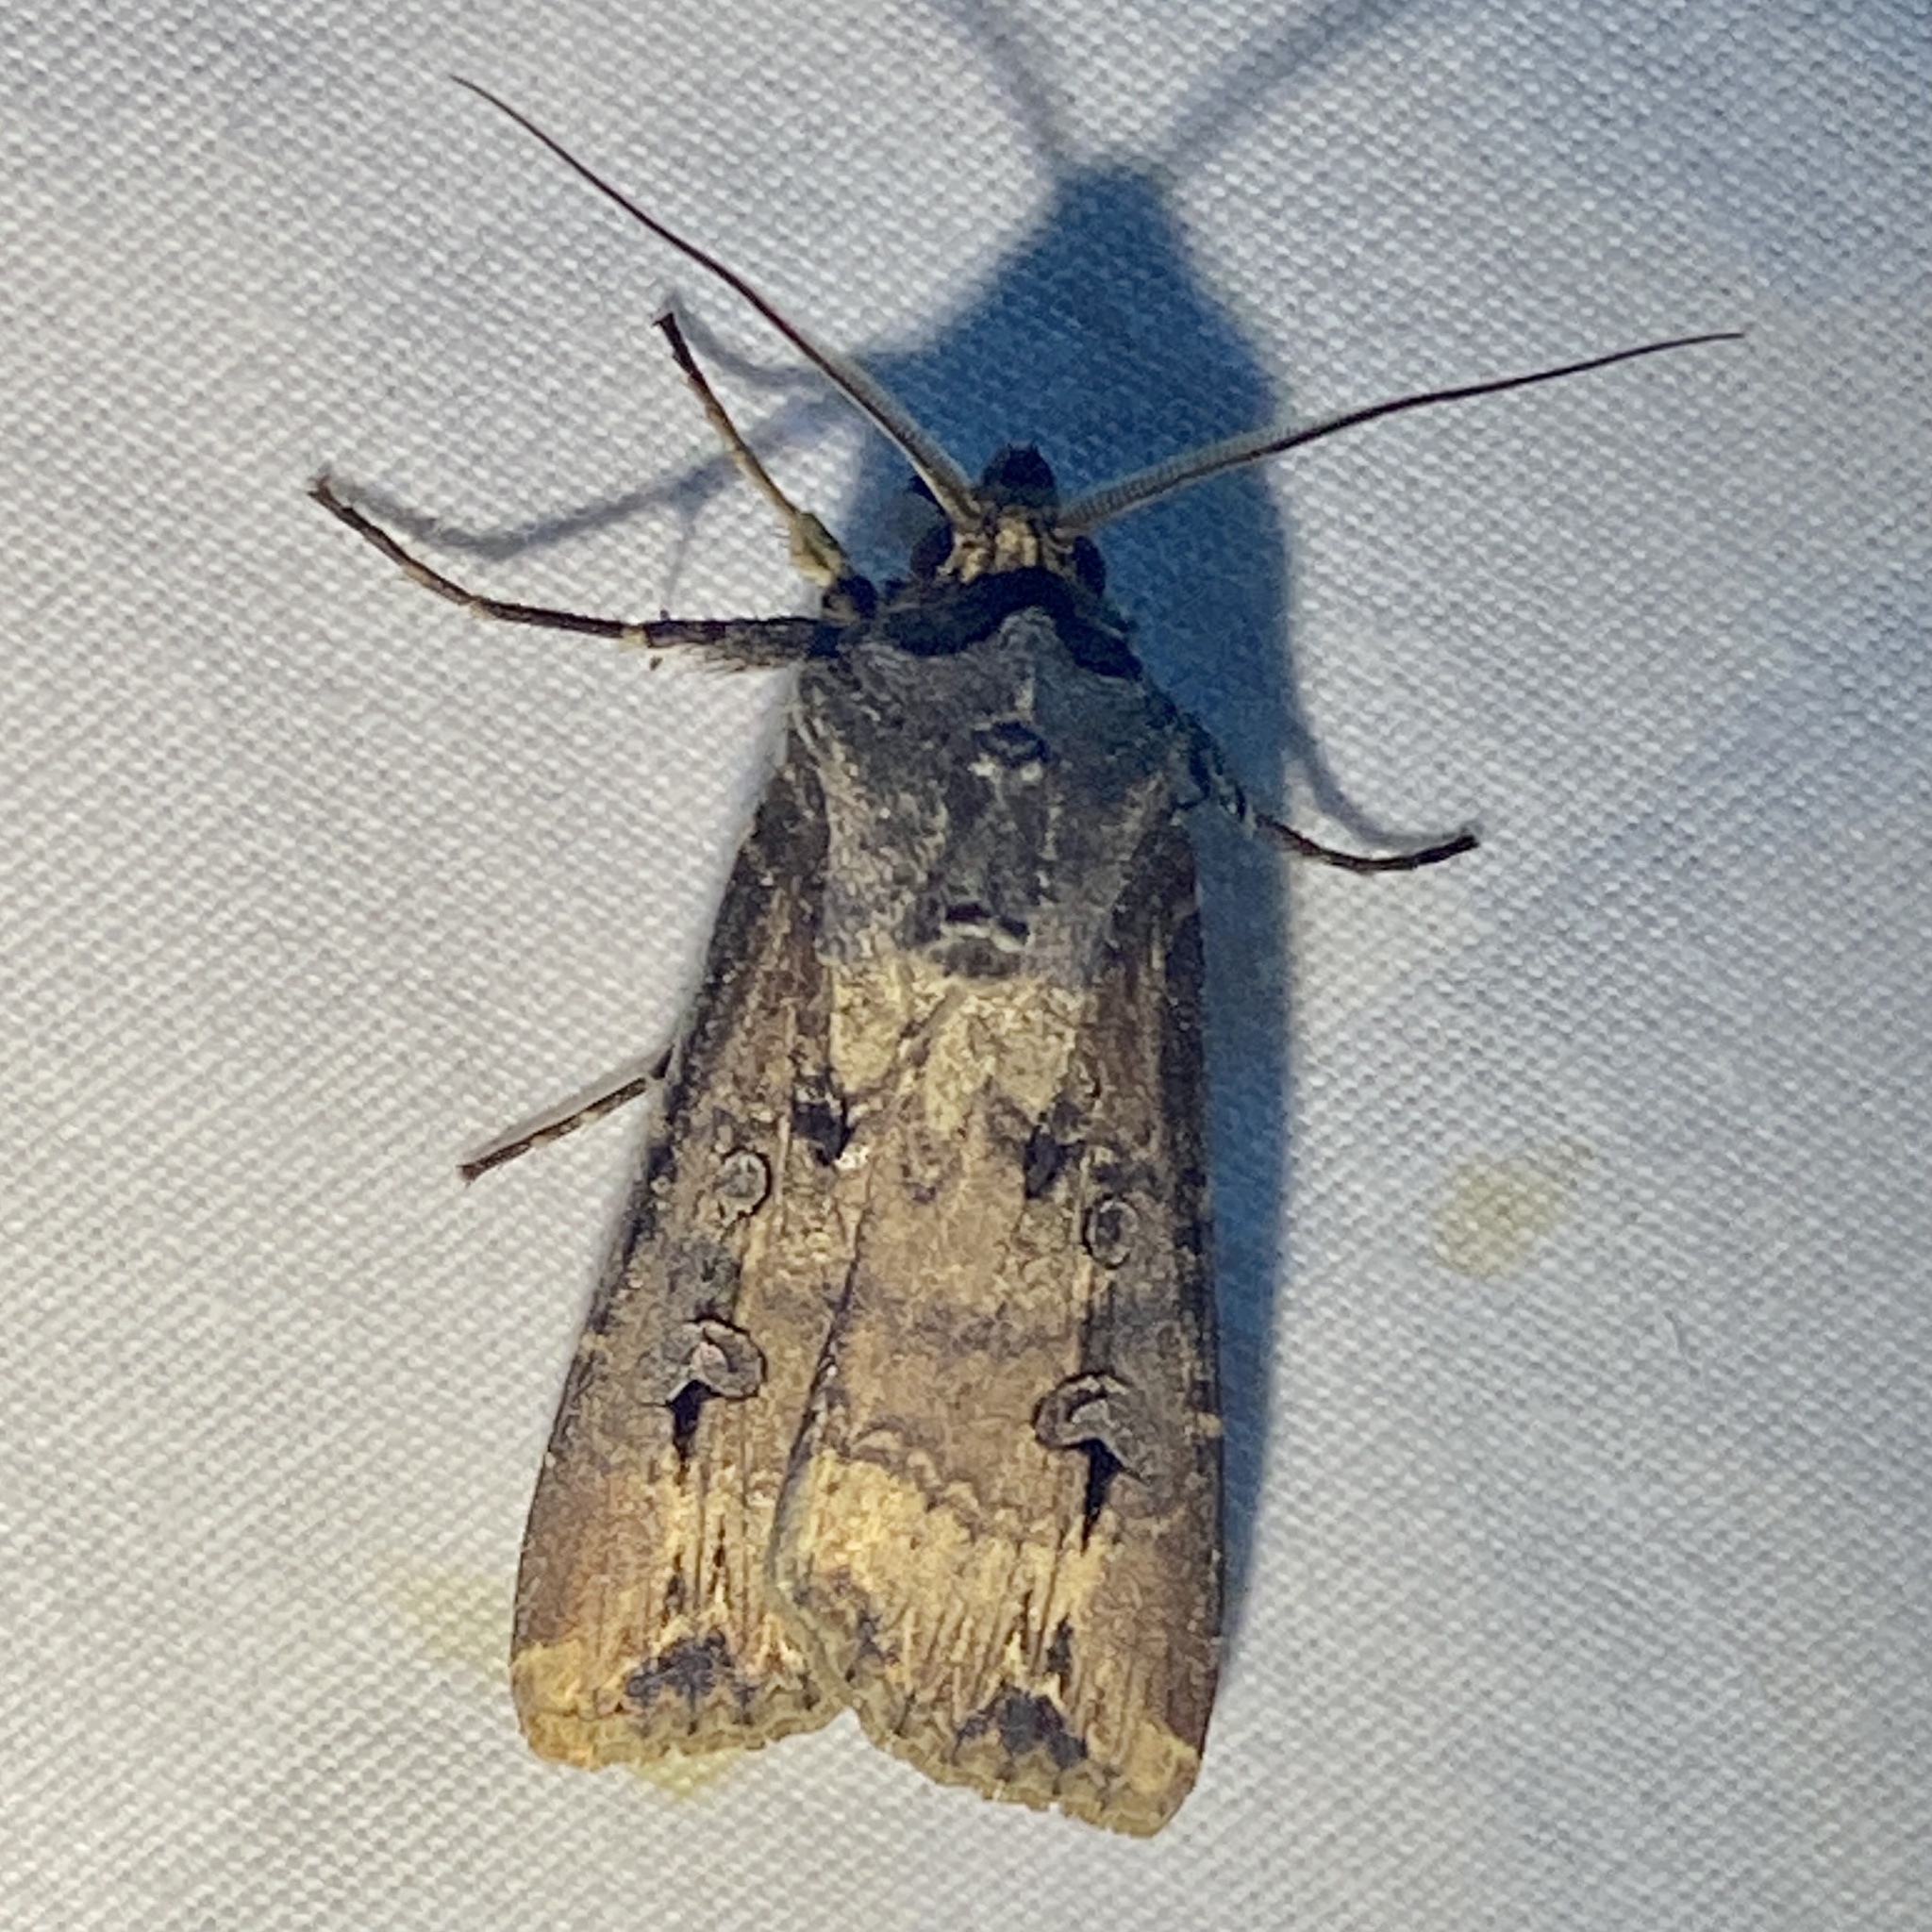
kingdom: Animalia
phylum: Arthropoda
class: Insecta
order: Lepidoptera
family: Noctuidae
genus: Agrotis
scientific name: Agrotis ipsilon
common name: Dark sword-grass
